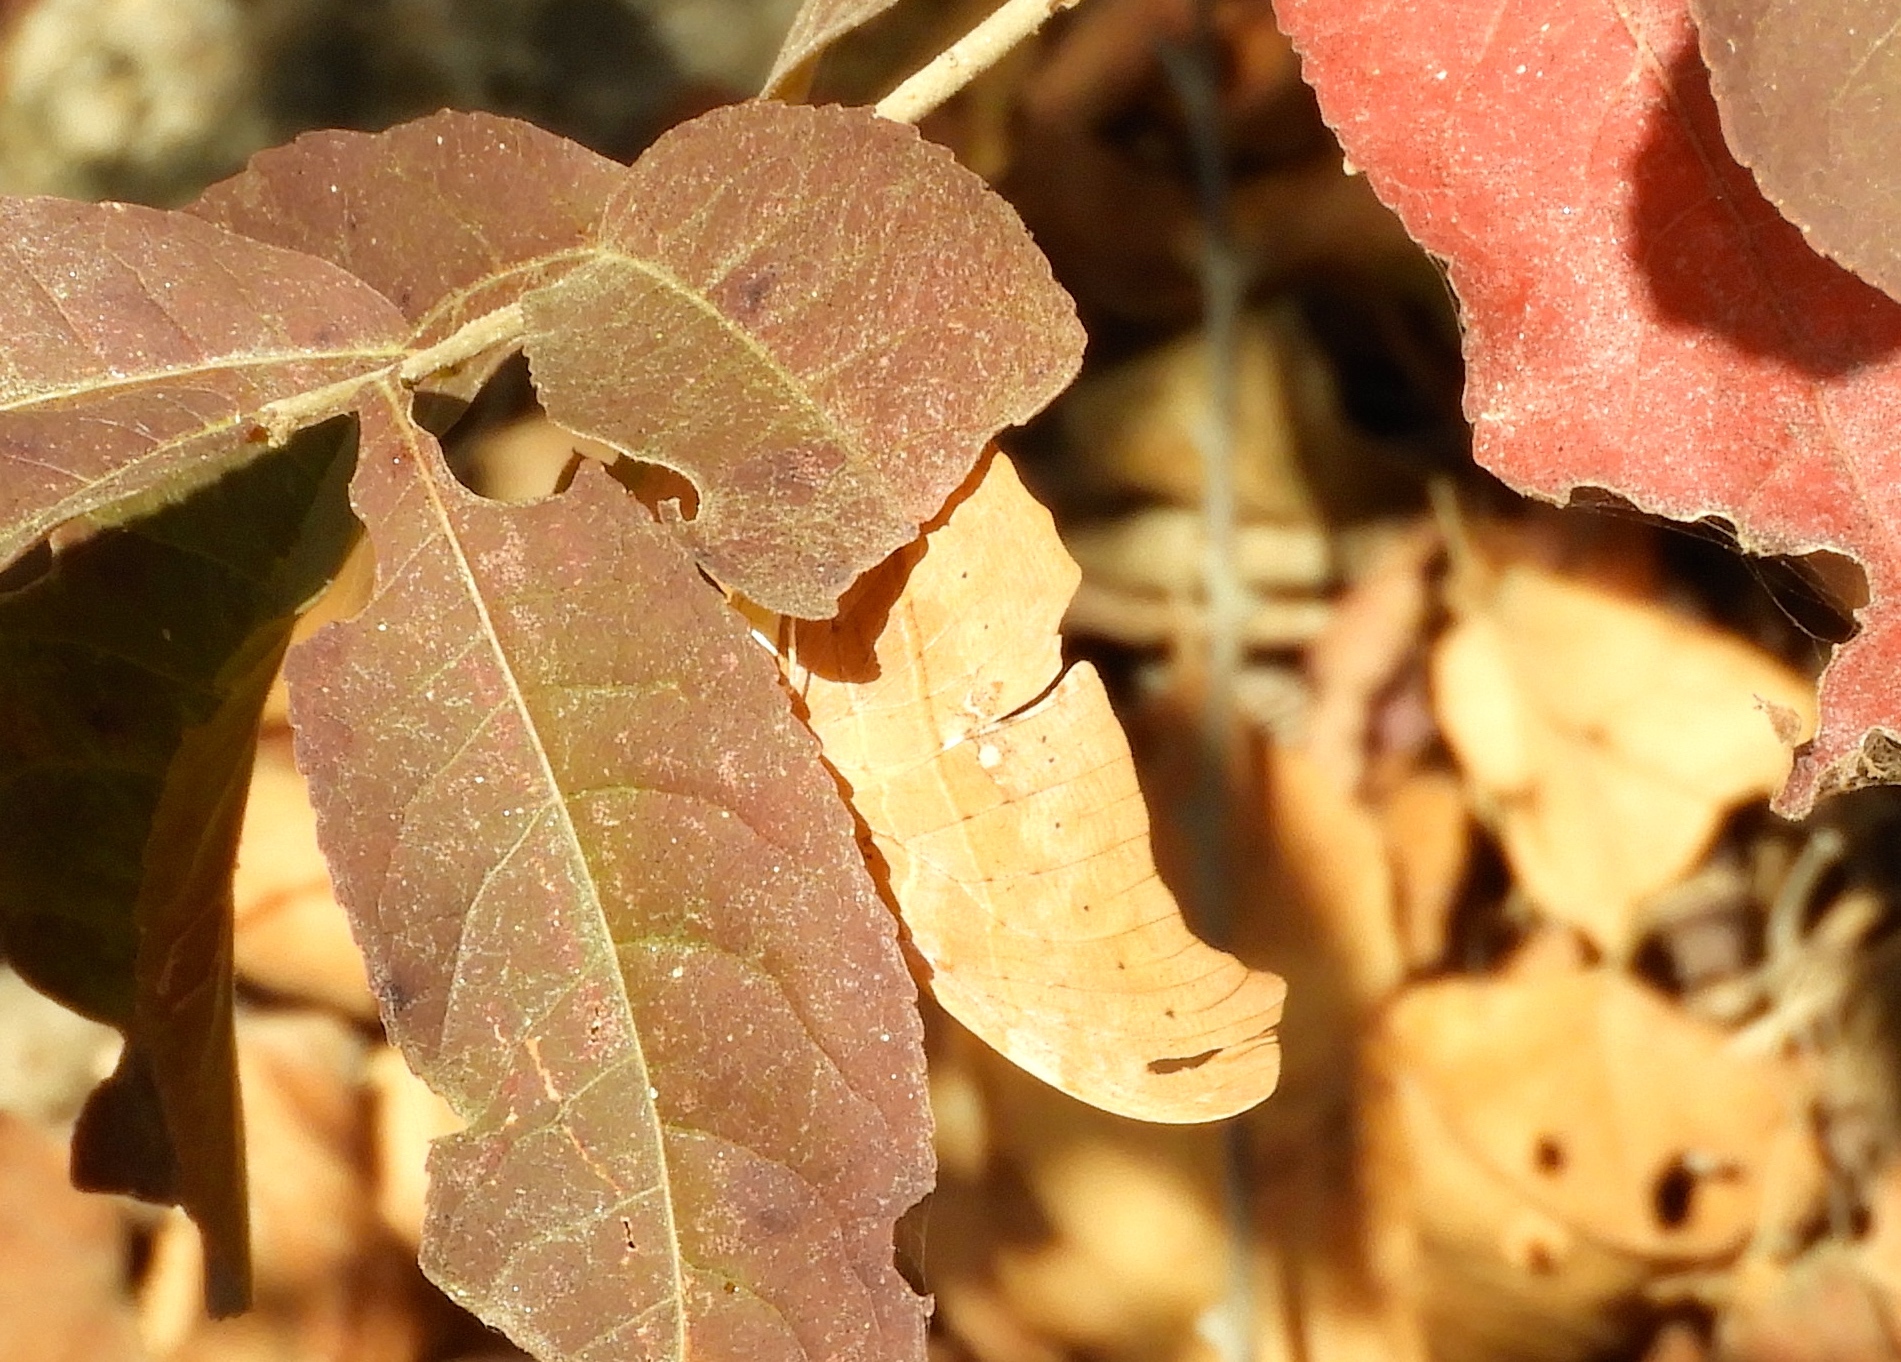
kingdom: Animalia
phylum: Arthropoda
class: Insecta
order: Lepidoptera
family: Nymphalidae
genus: Marpesia
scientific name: Marpesia petreus
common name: Red dagger wing
